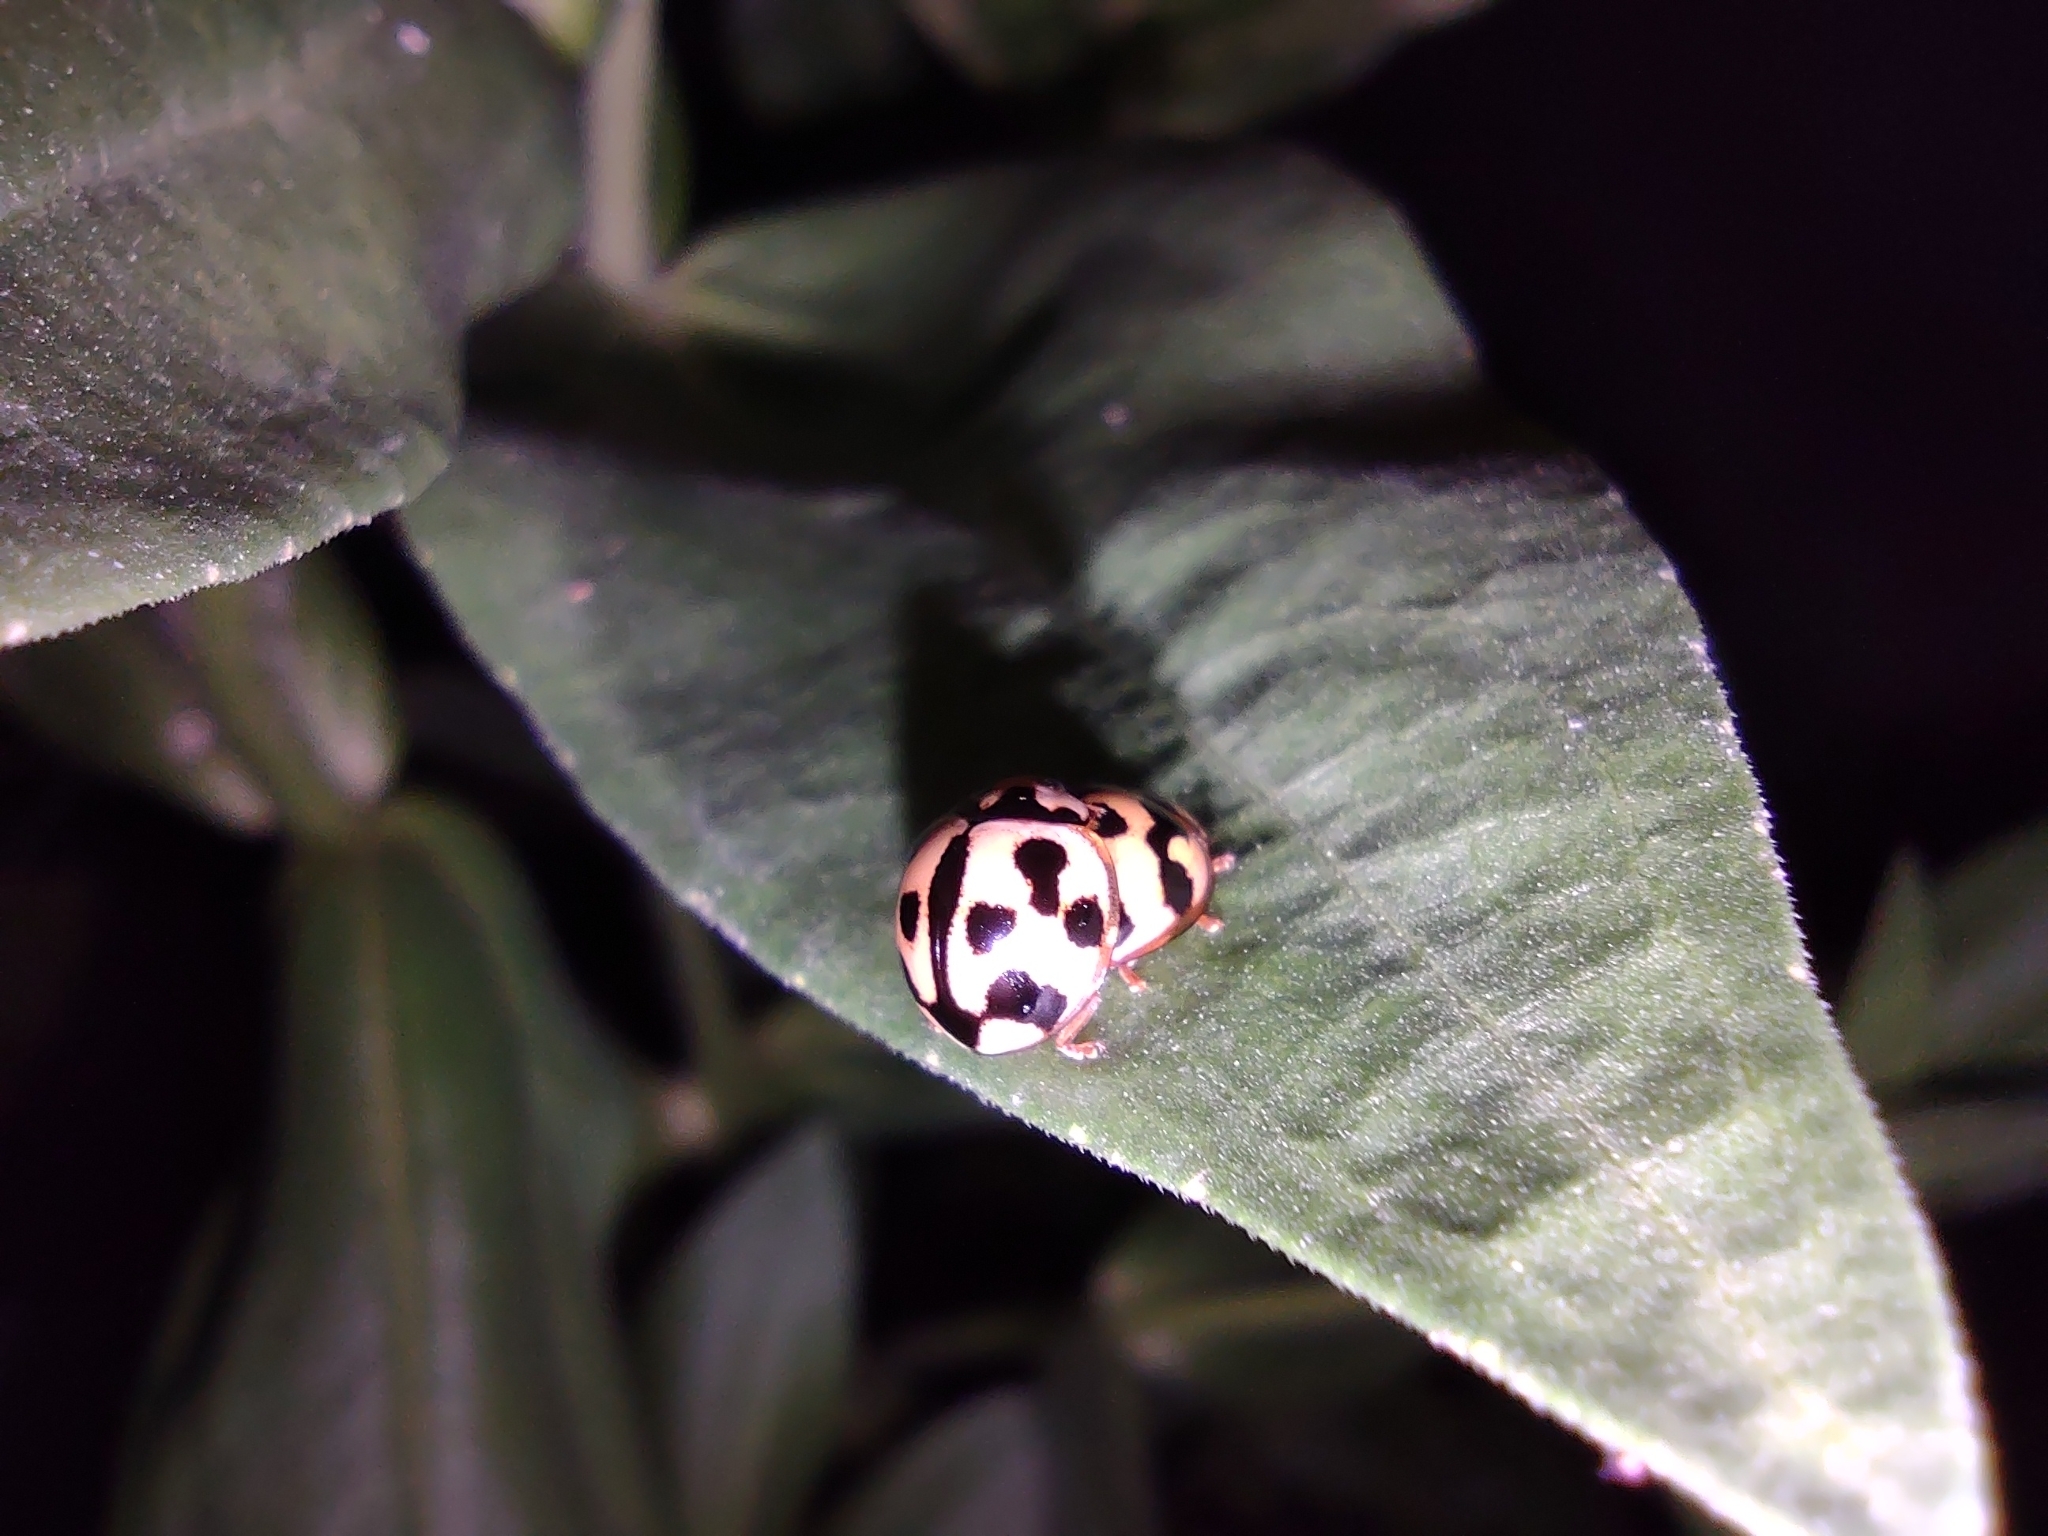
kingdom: Animalia
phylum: Arthropoda
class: Insecta
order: Coleoptera
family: Coccinellidae
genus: Coelophora
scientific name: Coelophora inaequalis
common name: Common australian lady beetle
